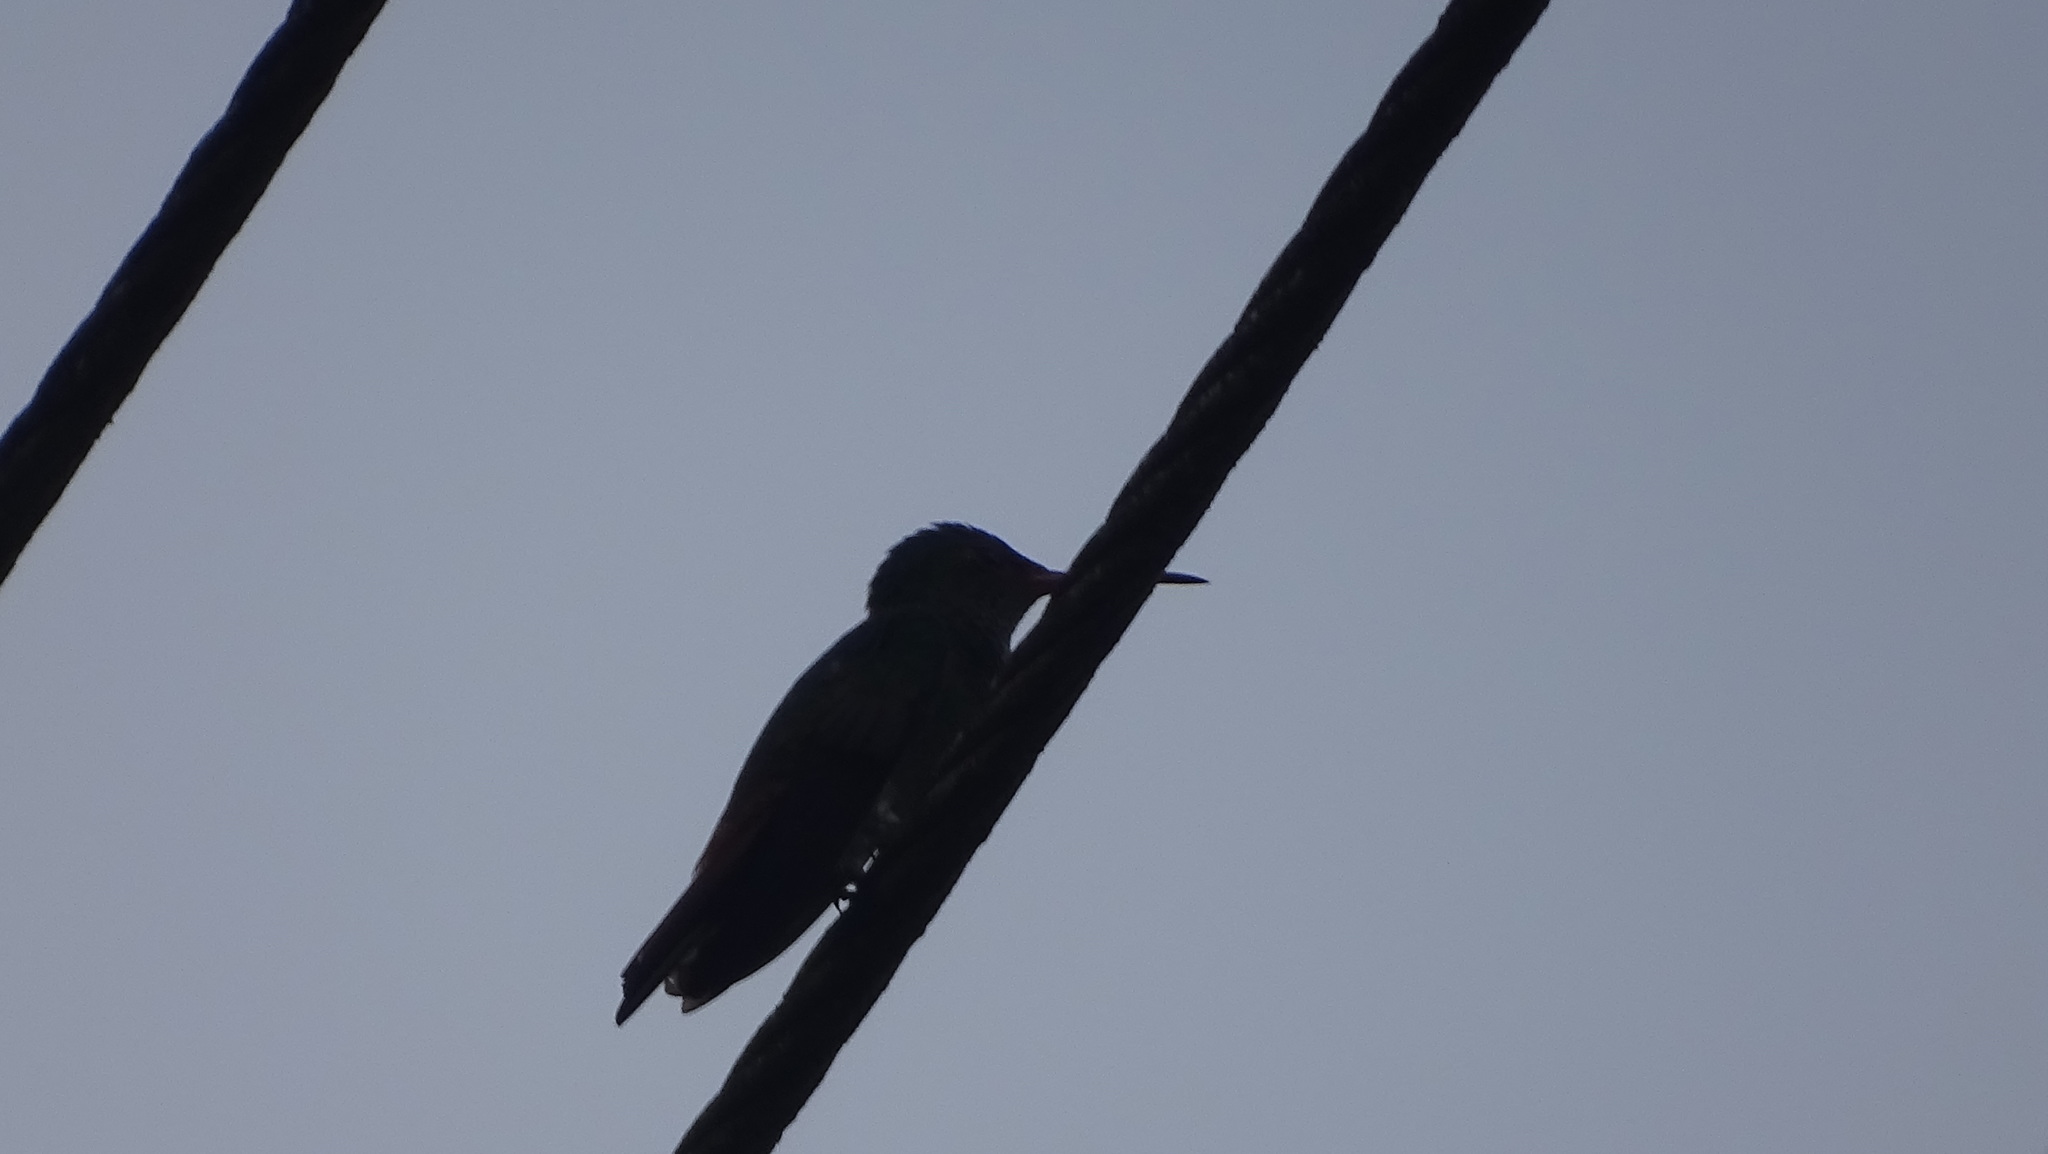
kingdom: Animalia
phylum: Chordata
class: Aves
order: Passeriformes
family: Hirundinidae
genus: Stelgidopteryx
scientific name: Stelgidopteryx ruficollis
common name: Southern rough-winged swallow
